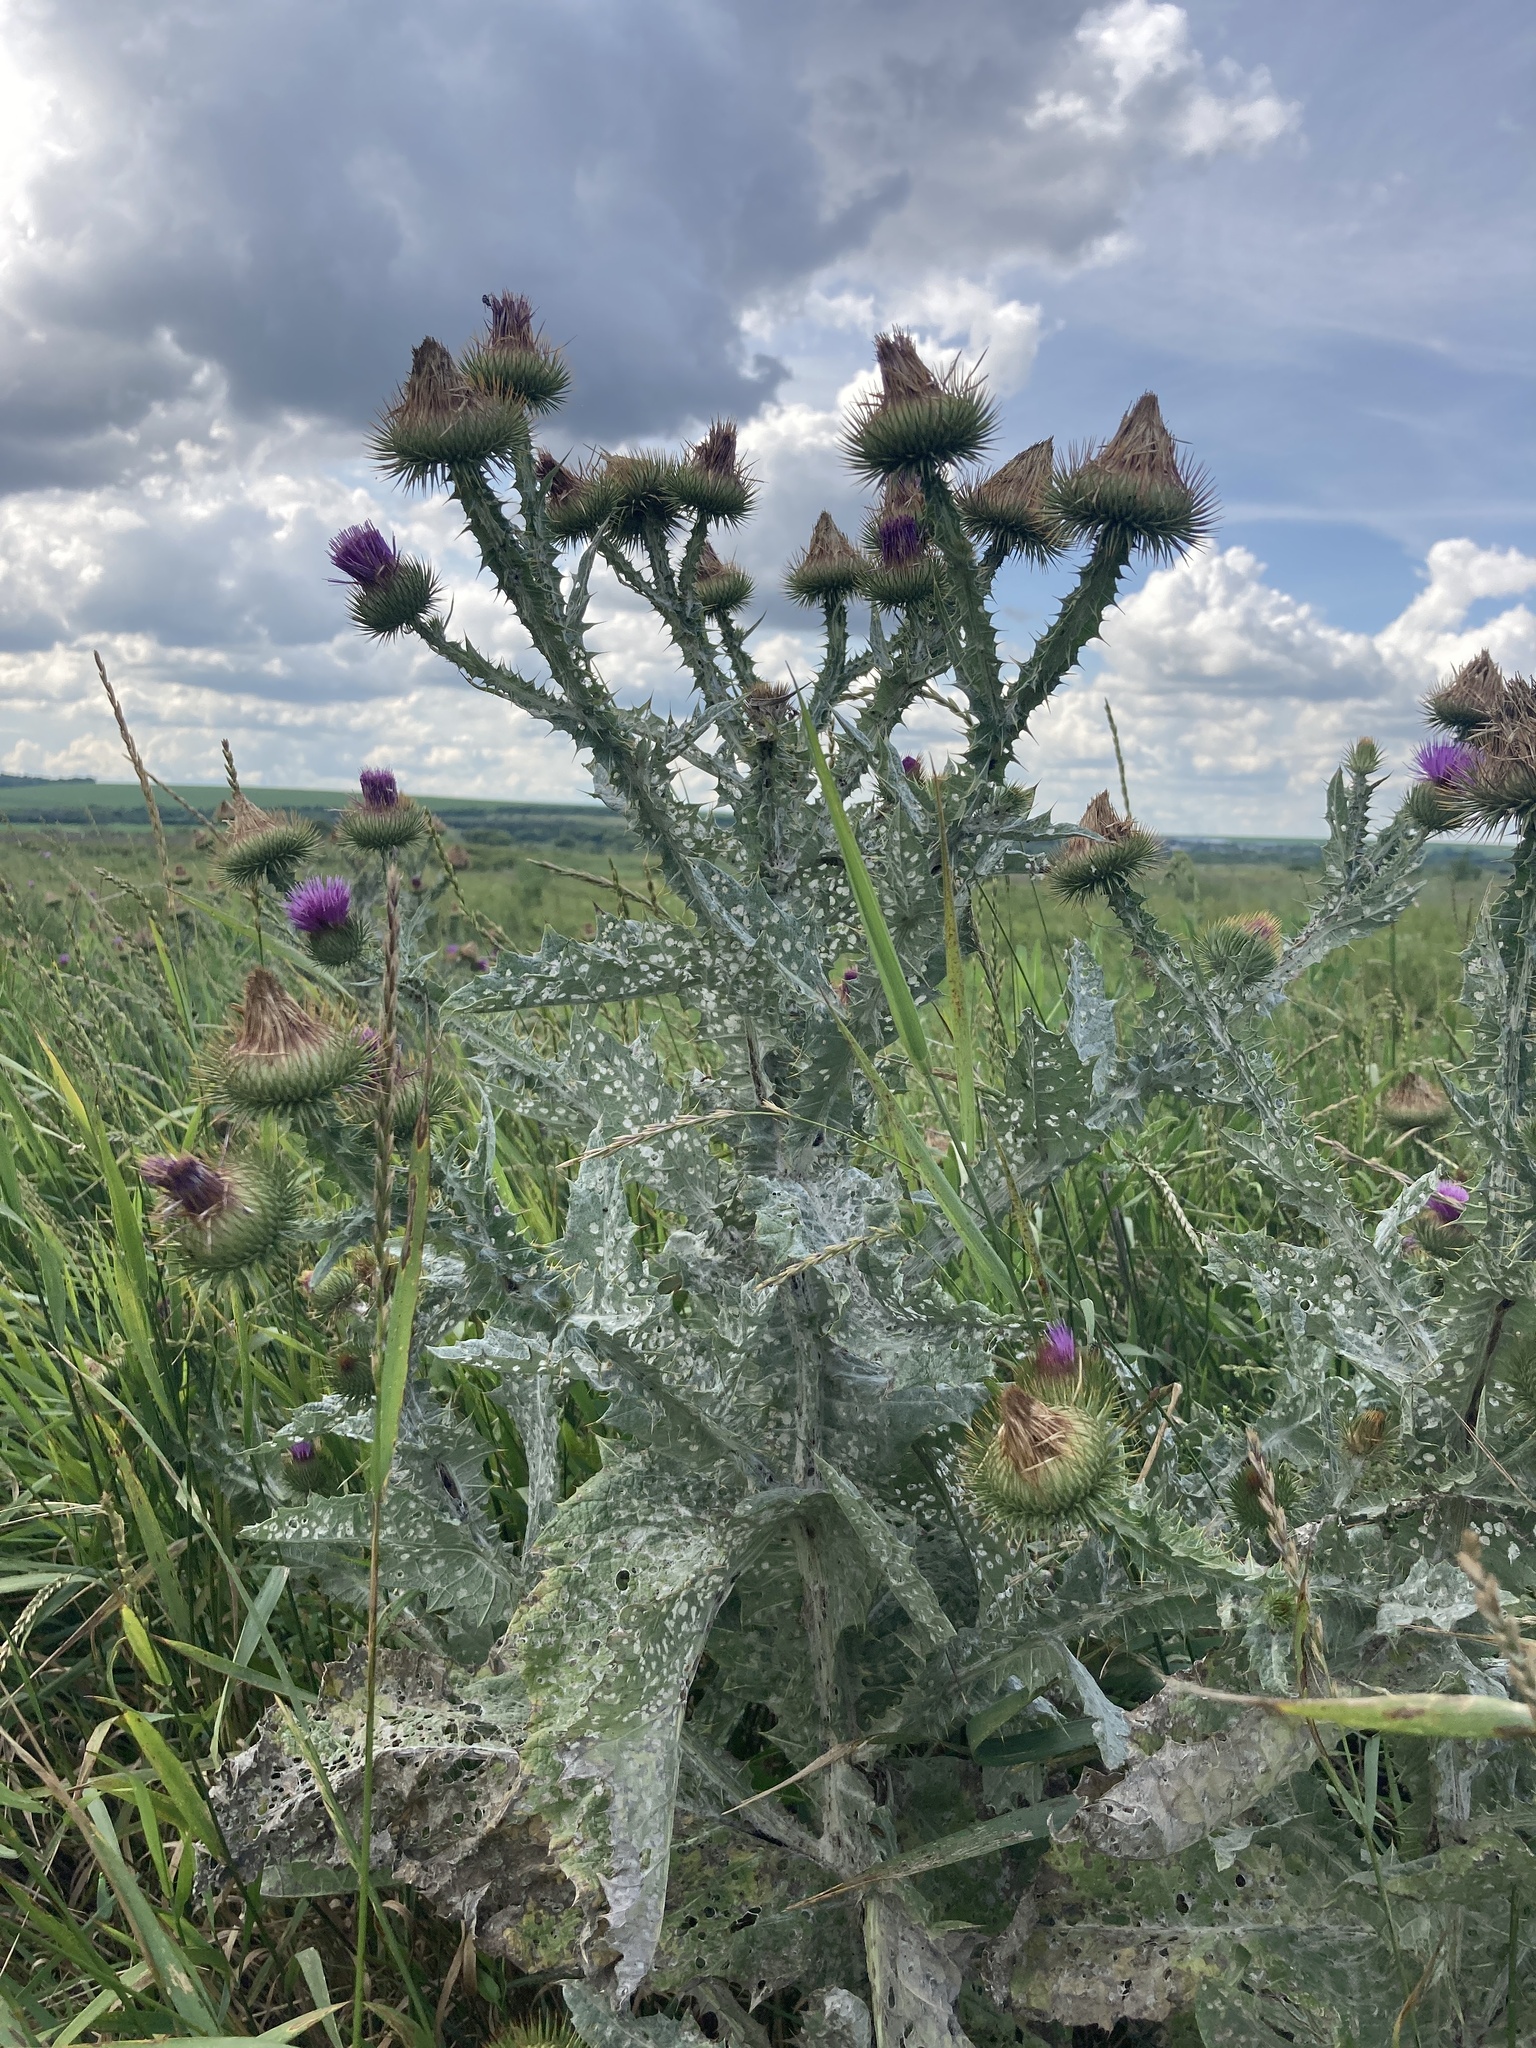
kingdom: Plantae
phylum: Tracheophyta
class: Magnoliopsida
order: Asterales
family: Asteraceae
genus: Onopordum
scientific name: Onopordum acanthium
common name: Scotch thistle
